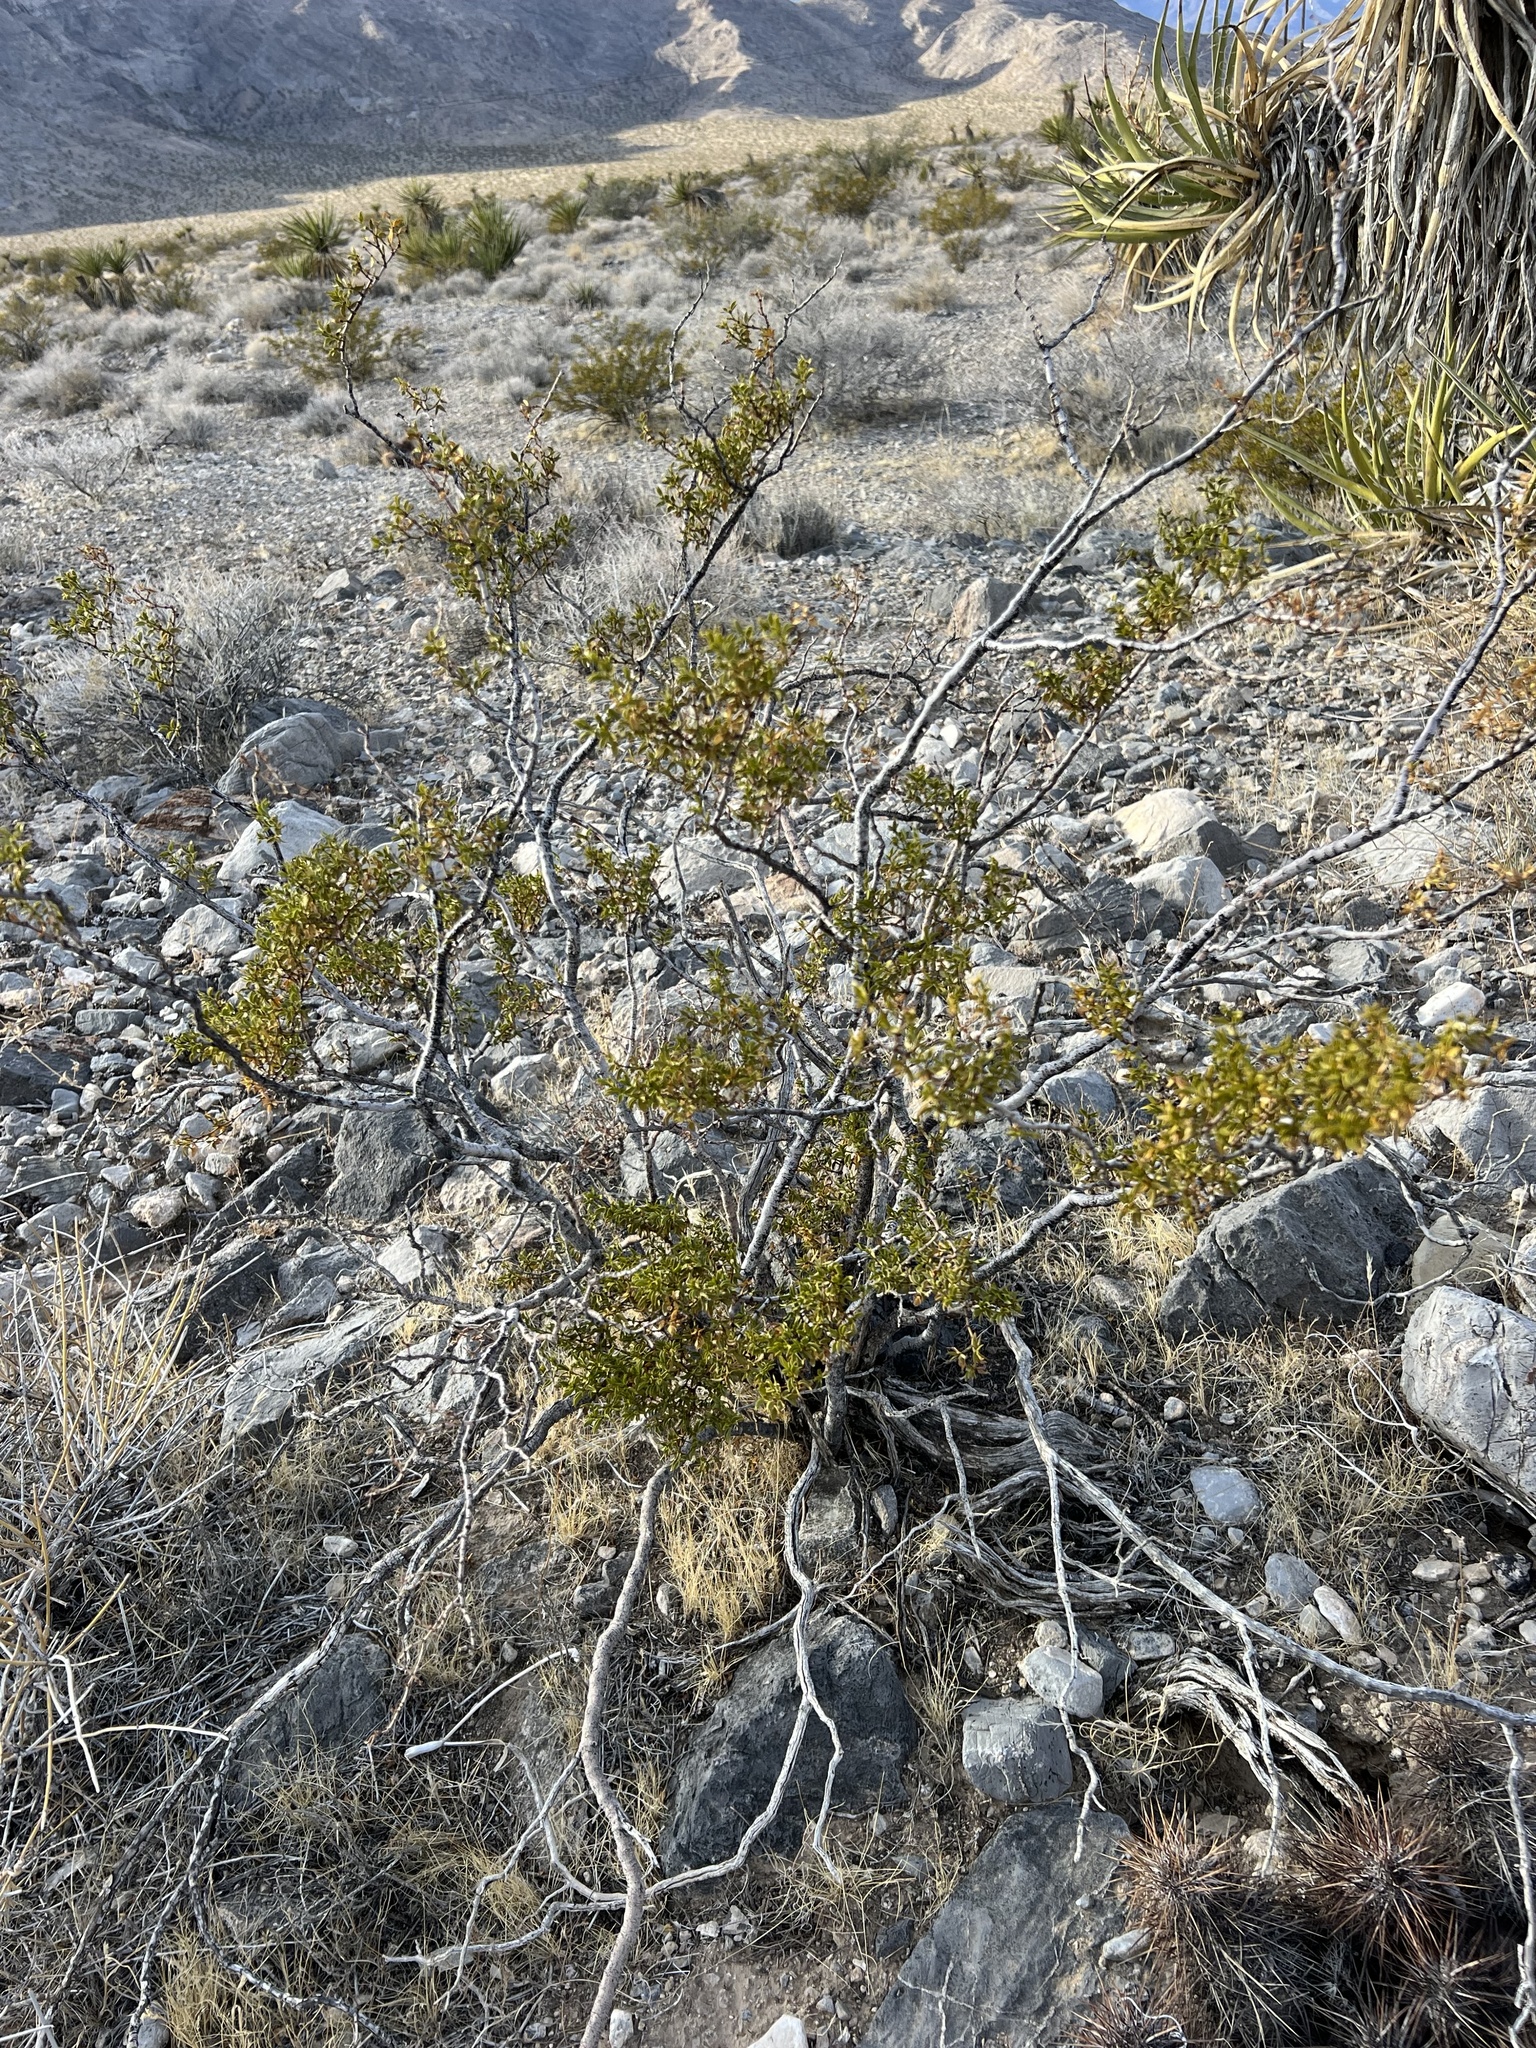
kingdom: Plantae
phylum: Tracheophyta
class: Magnoliopsida
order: Zygophyllales
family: Zygophyllaceae
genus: Larrea
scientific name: Larrea tridentata
